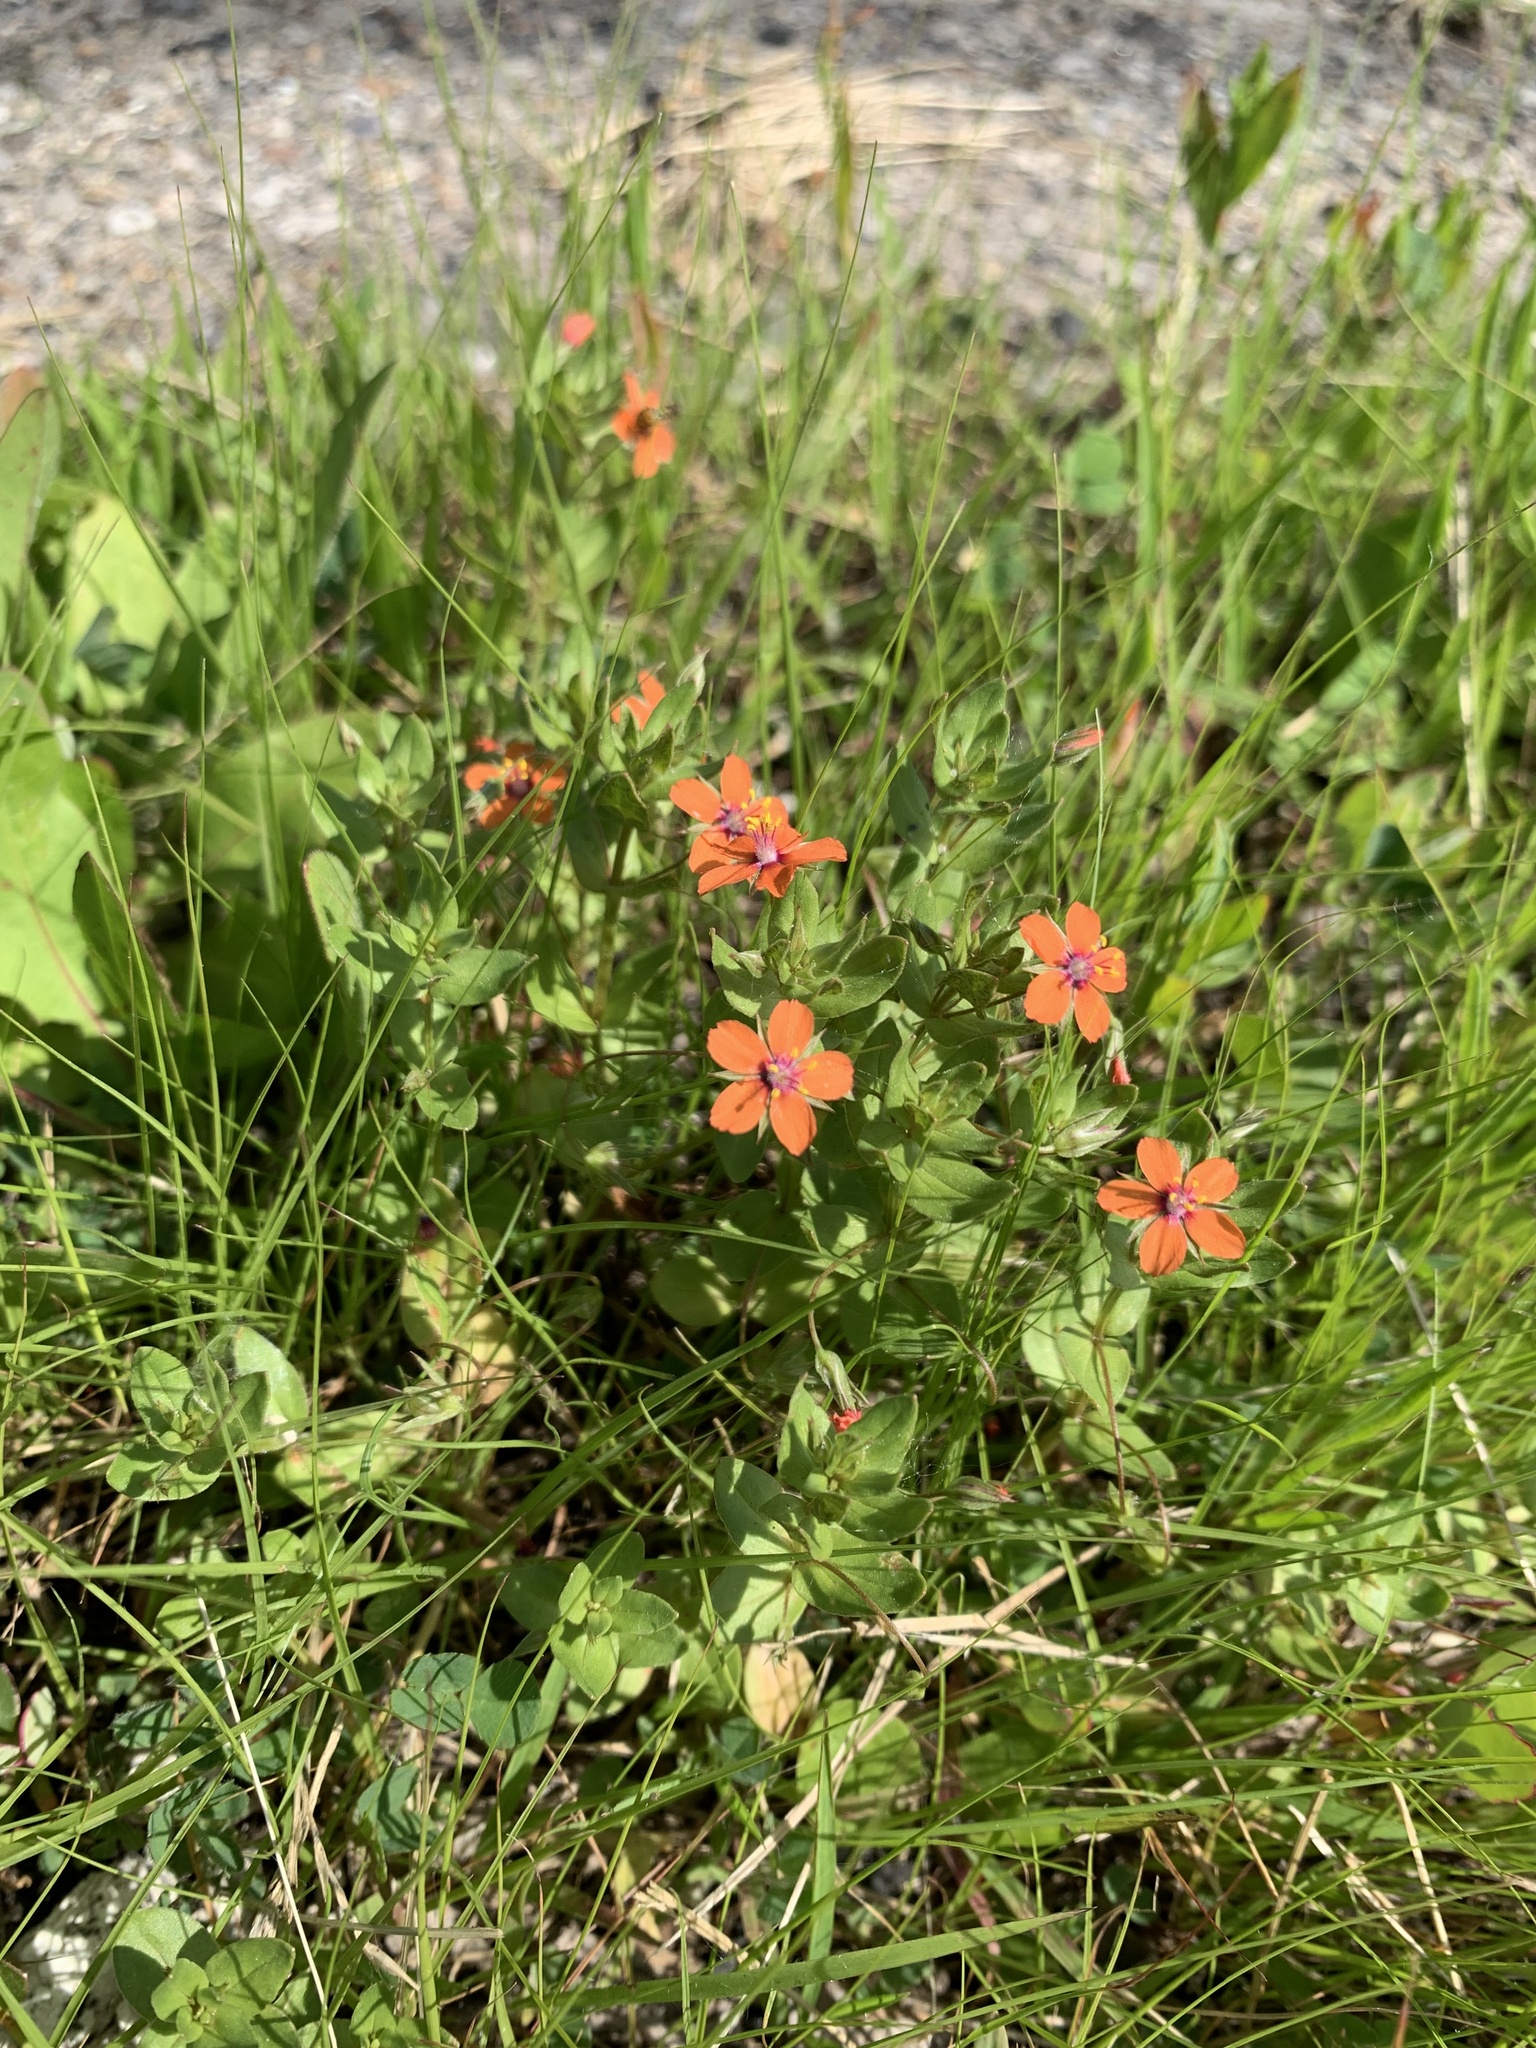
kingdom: Plantae
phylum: Tracheophyta
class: Magnoliopsida
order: Ericales
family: Primulaceae
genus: Lysimachia
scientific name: Lysimachia arvensis
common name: Scarlet pimpernel
